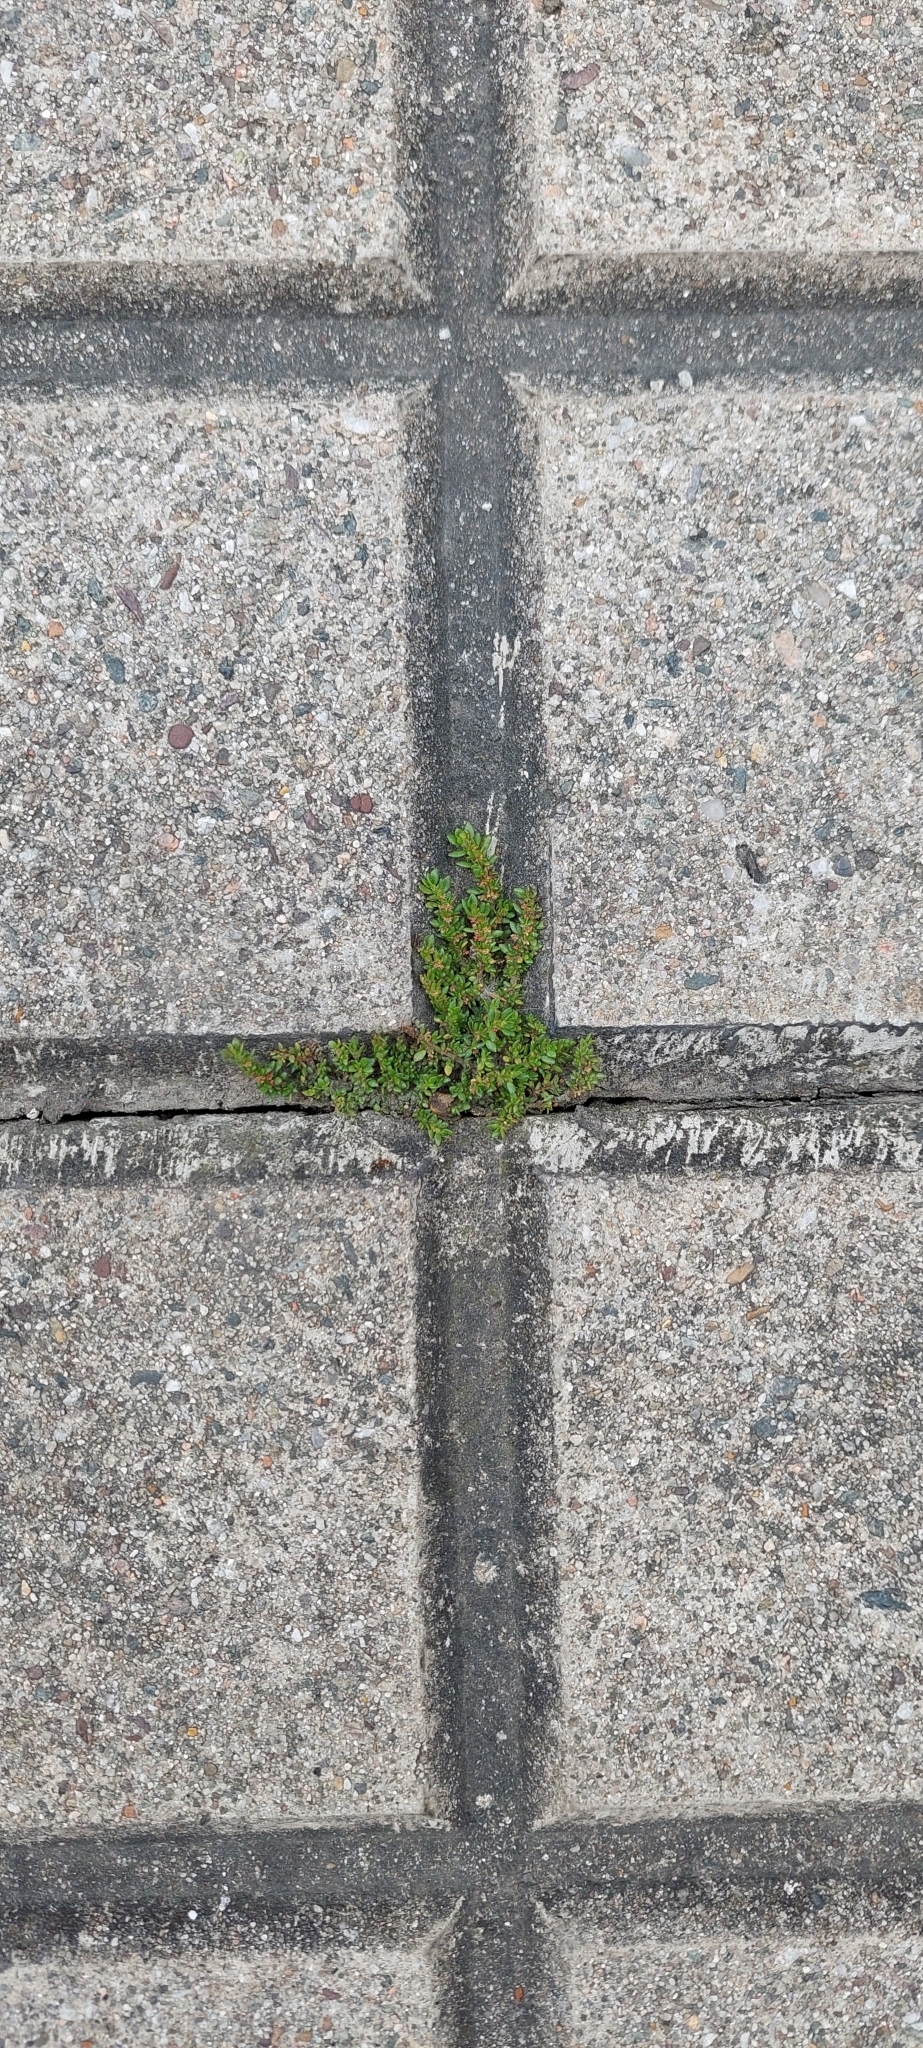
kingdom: Plantae
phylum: Tracheophyta
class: Magnoliopsida
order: Rosales
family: Urticaceae
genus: Pilea
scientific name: Pilea microphylla
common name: Artillery-plant
